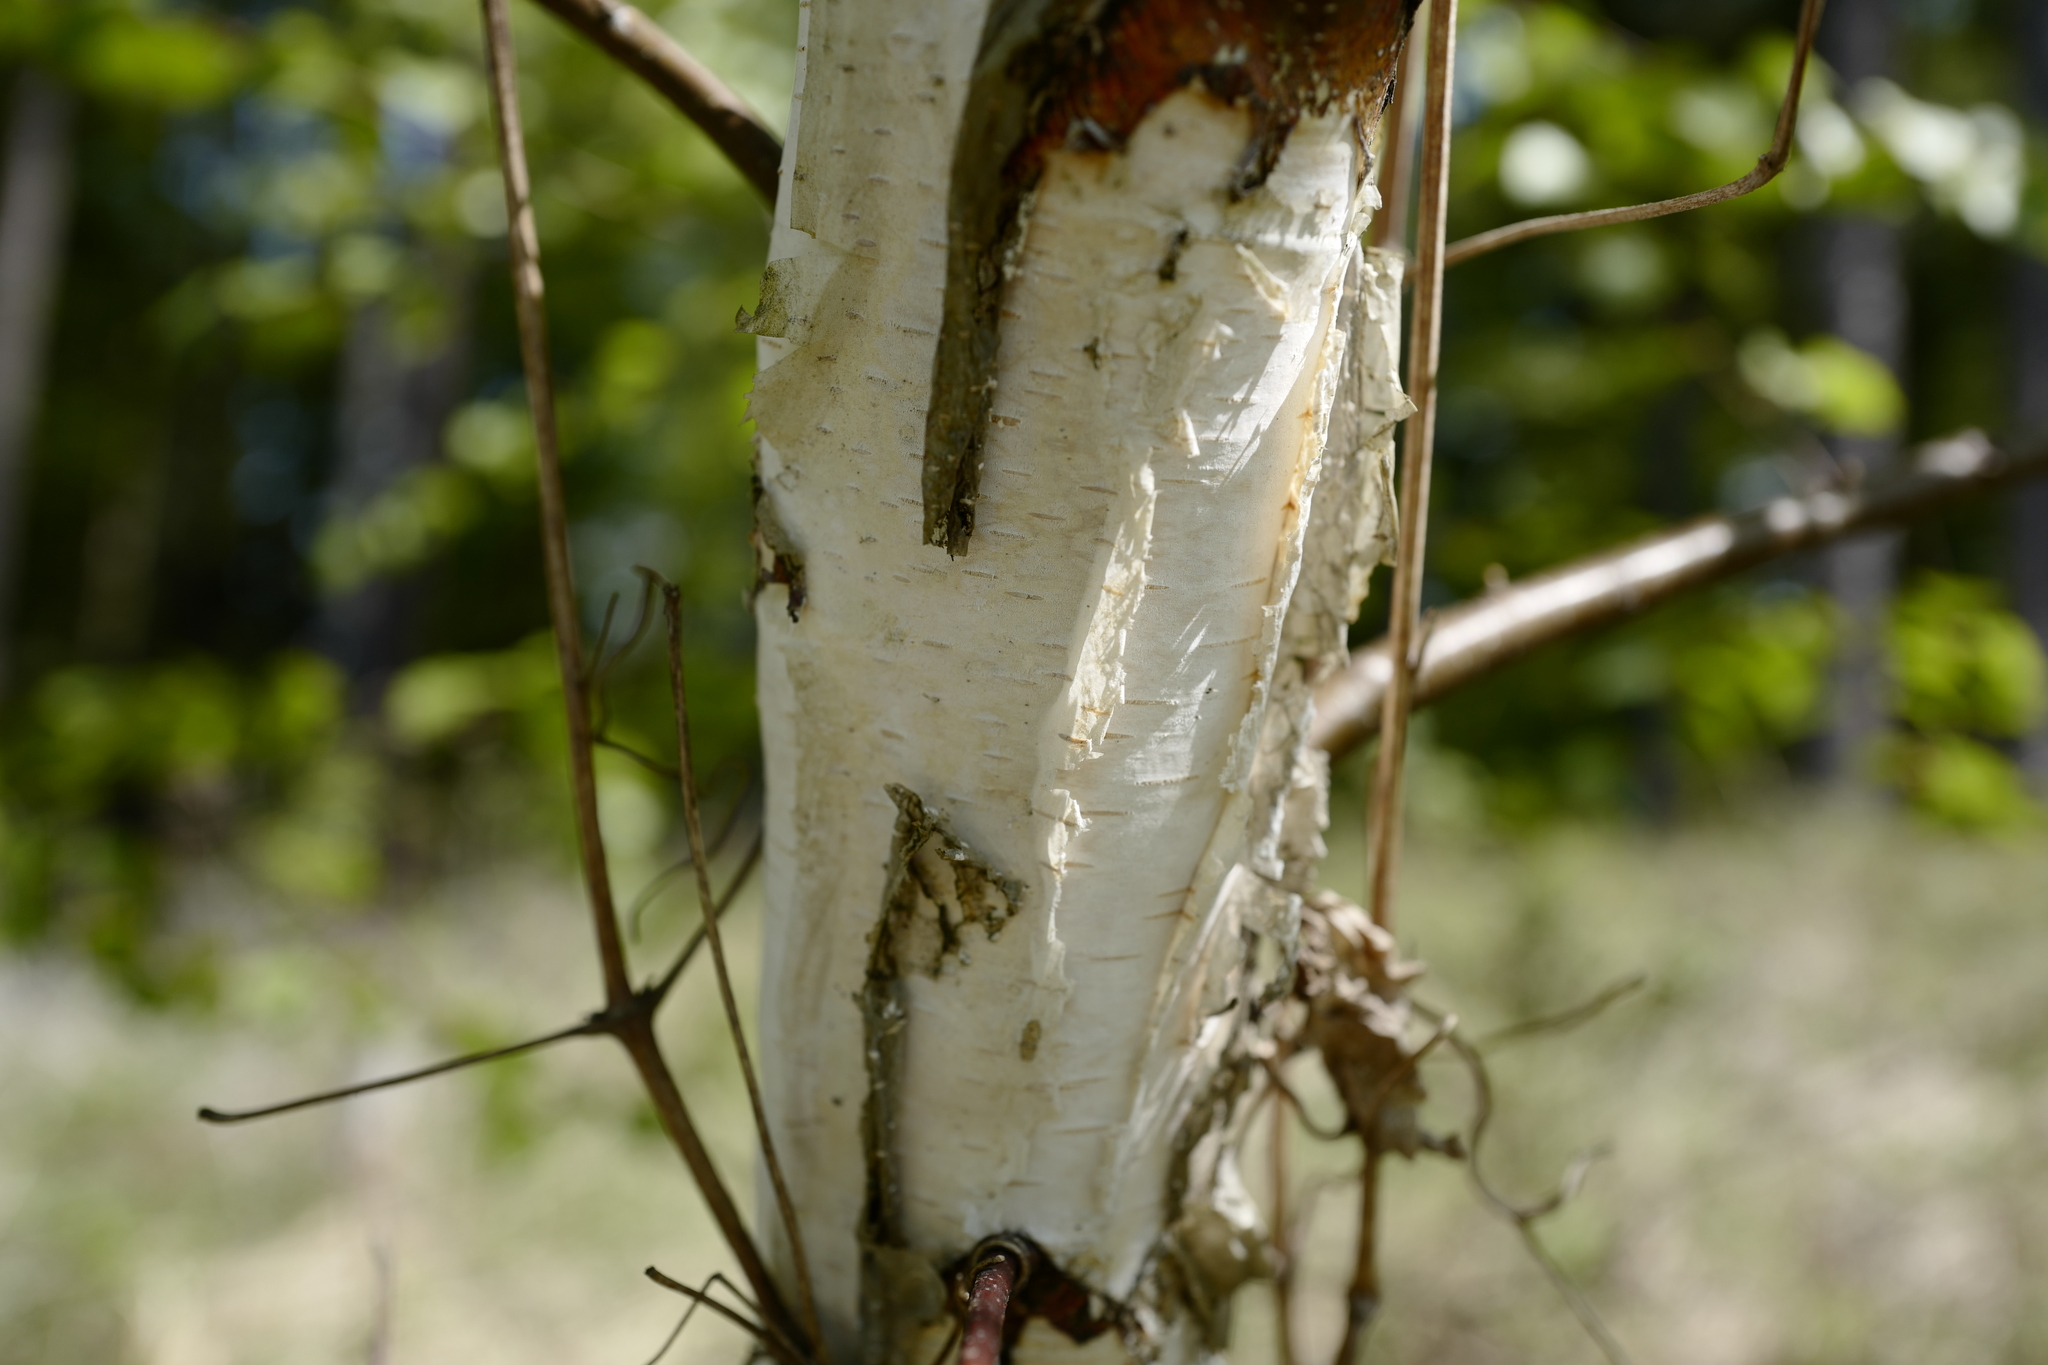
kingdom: Plantae
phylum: Tracheophyta
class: Magnoliopsida
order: Fagales
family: Betulaceae
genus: Betula
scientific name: Betula pendula
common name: Silver birch
